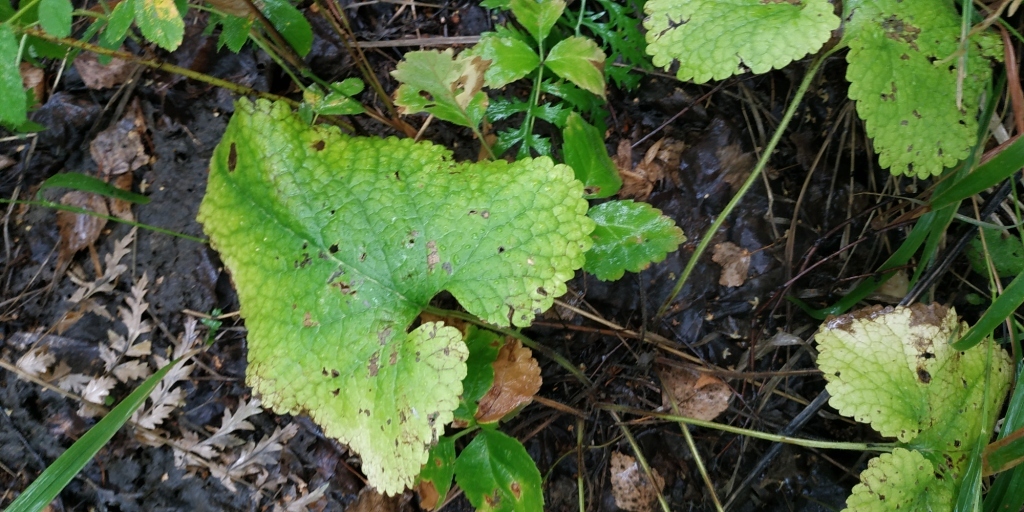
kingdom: Plantae
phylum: Tracheophyta
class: Magnoliopsida
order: Lamiales
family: Lamiaceae
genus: Phlomoides
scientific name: Phlomoides tuberosa
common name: Tuberous jerusalem sage
